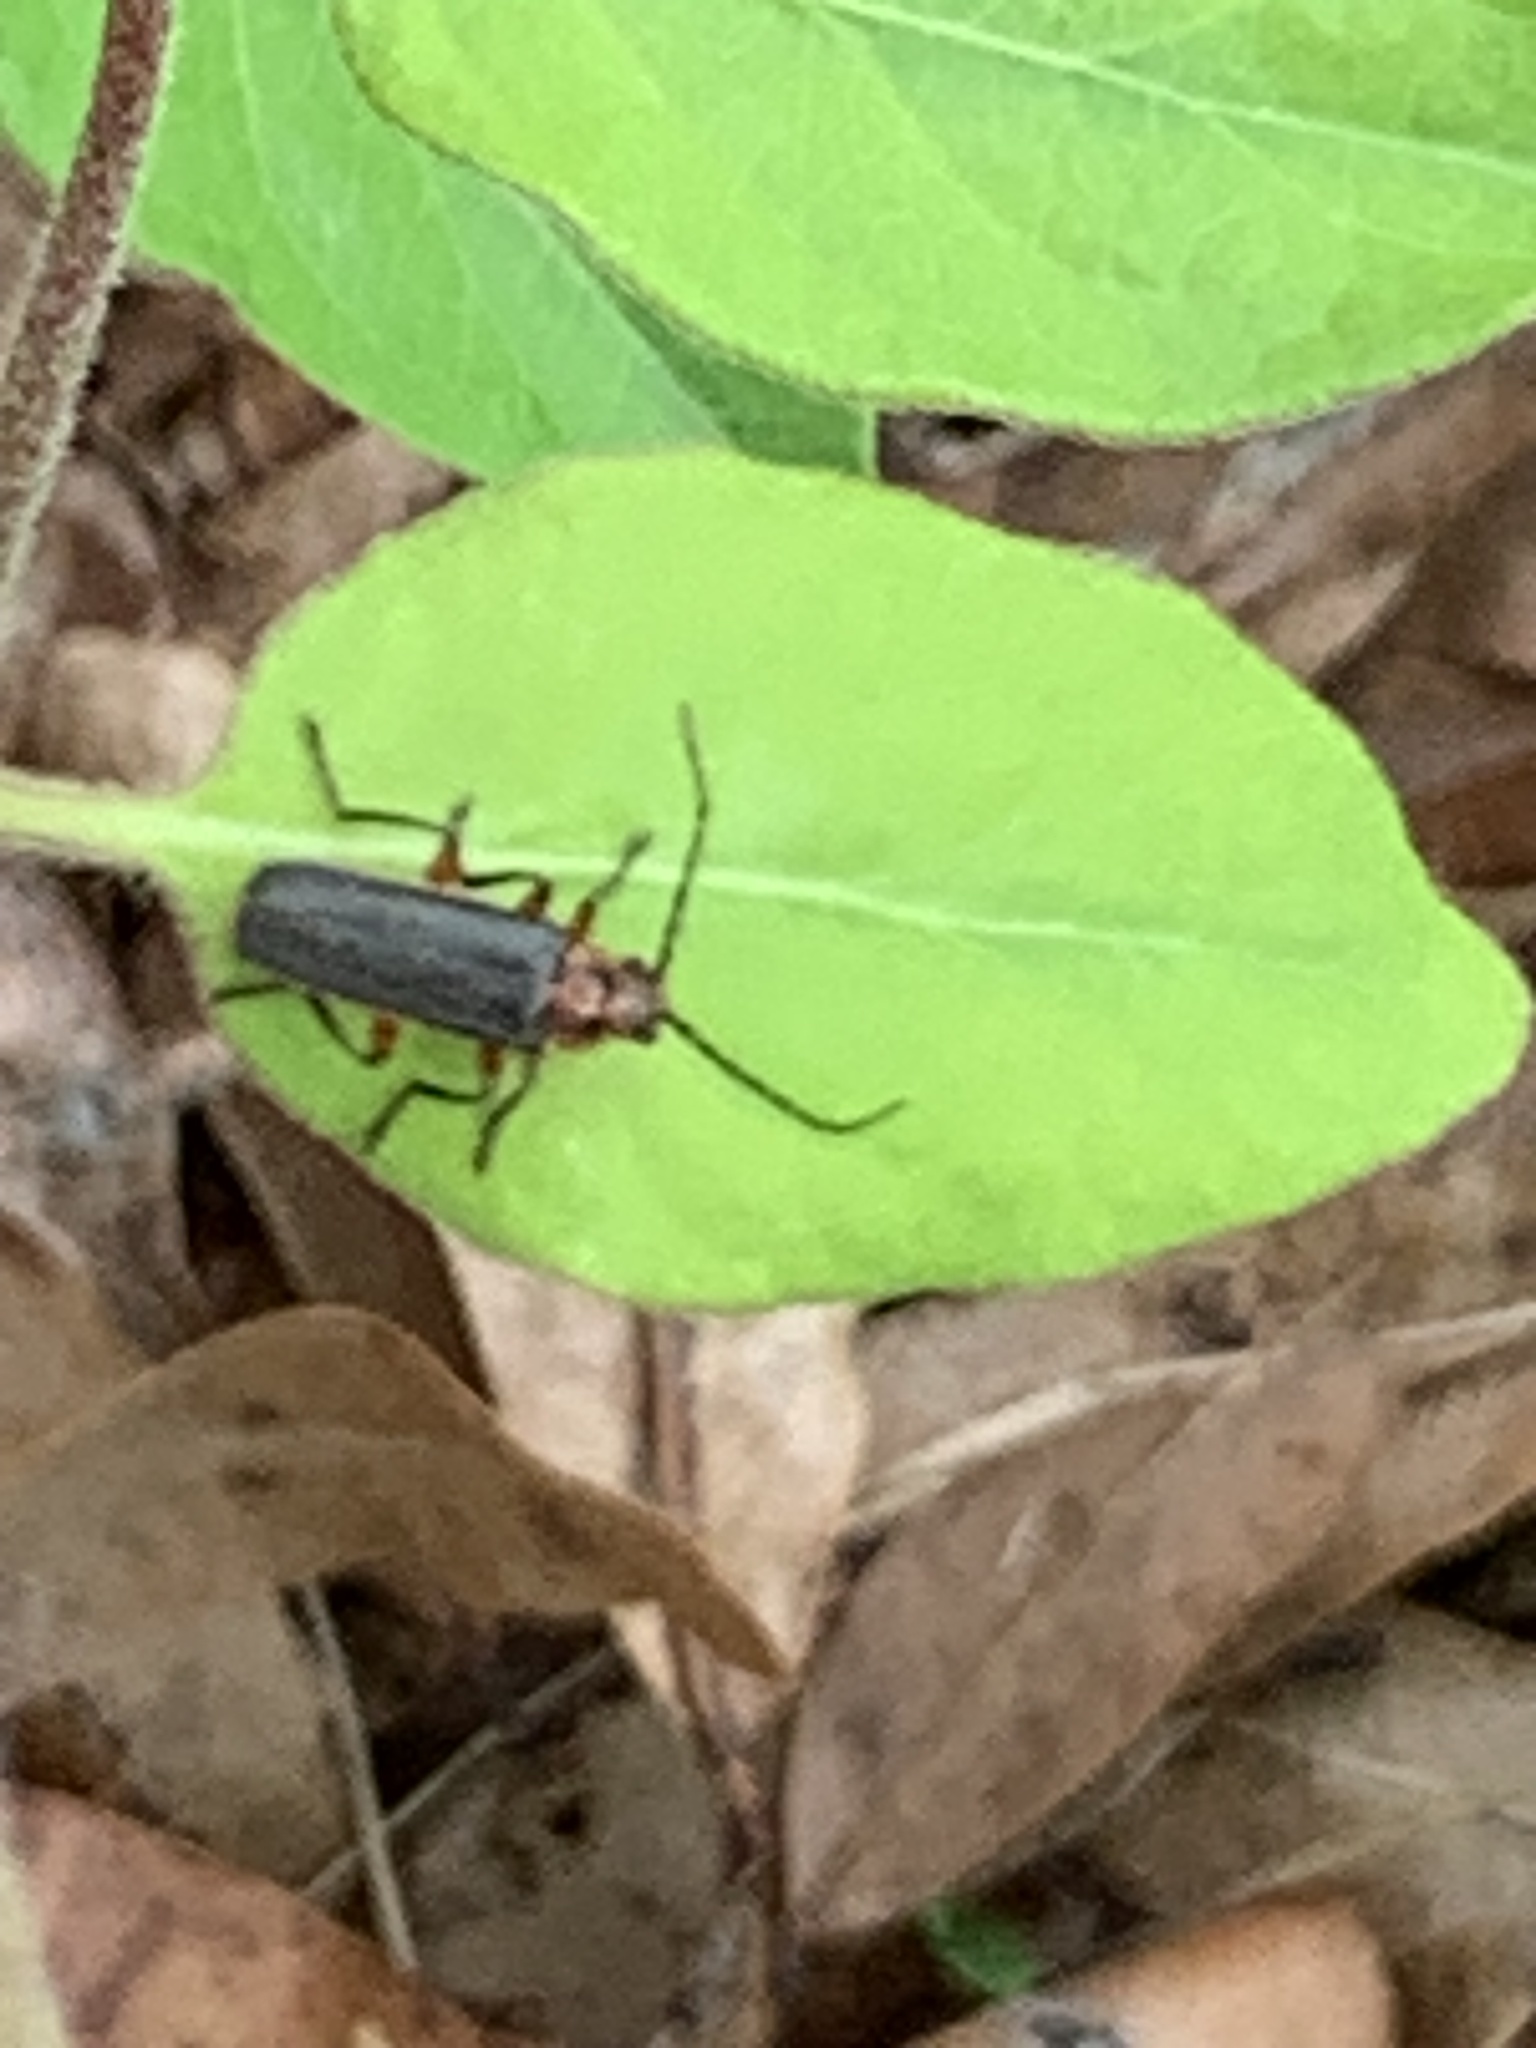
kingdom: Animalia
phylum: Arthropoda
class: Insecta
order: Coleoptera
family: Cantharidae
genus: Atalantycha
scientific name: Atalantycha bilineata
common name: Two-lined leatherwing
